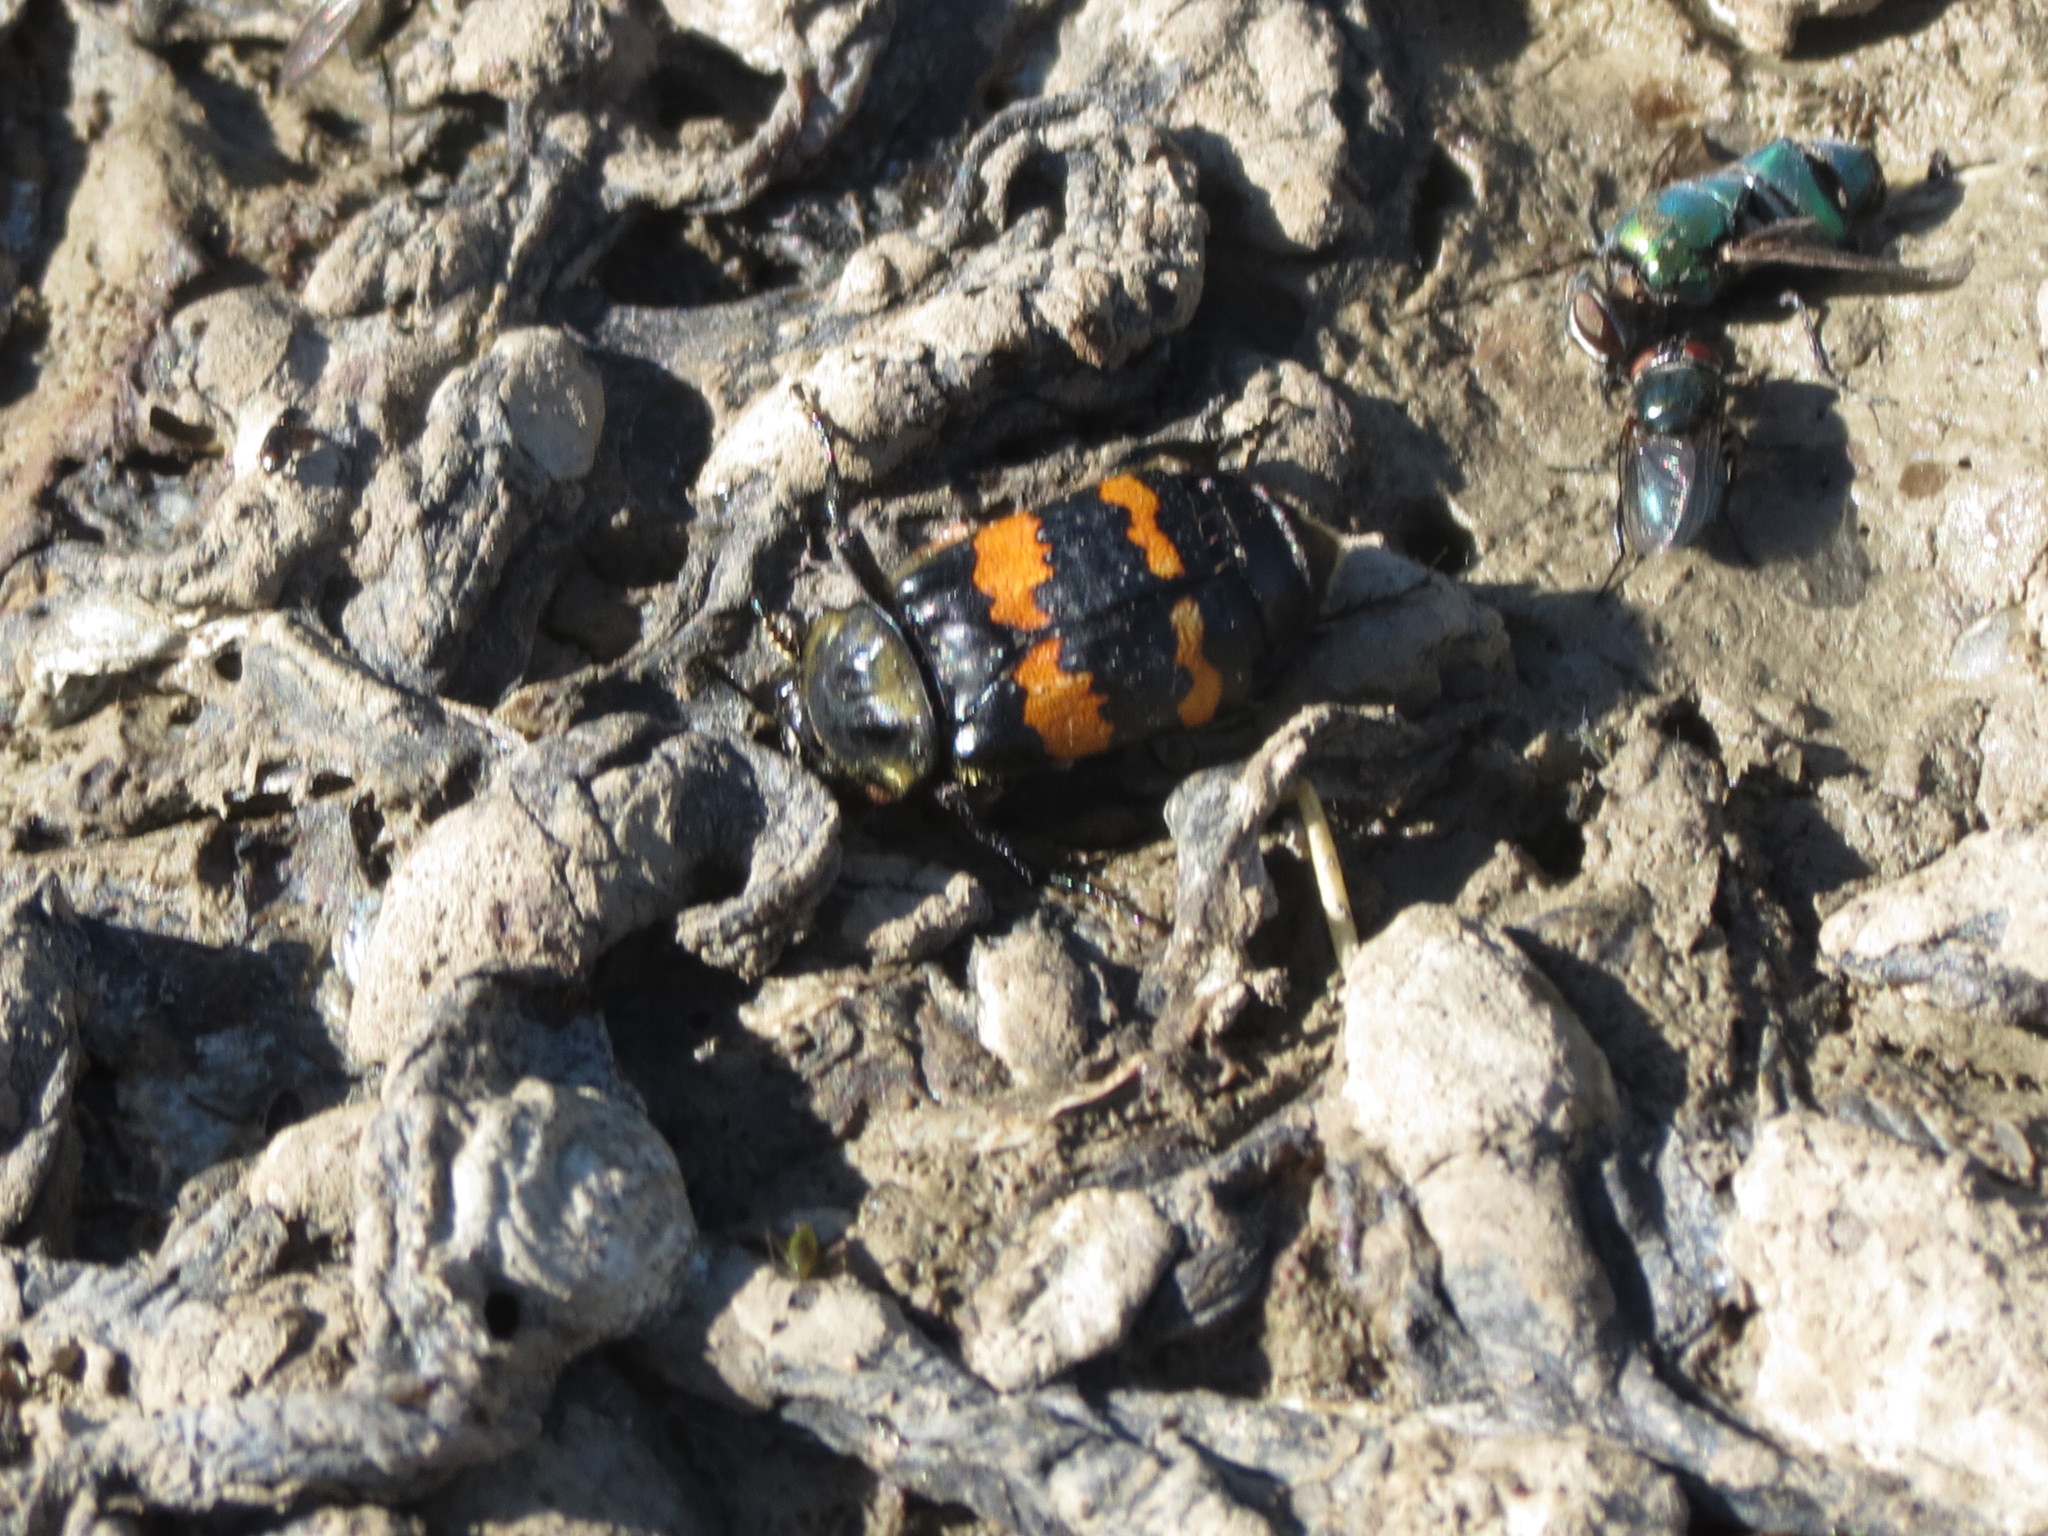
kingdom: Animalia
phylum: Arthropoda
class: Insecta
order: Coleoptera
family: Staphylinidae
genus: Nicrophorus
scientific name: Nicrophorus tomentosus
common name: Tomentose burying beetle
